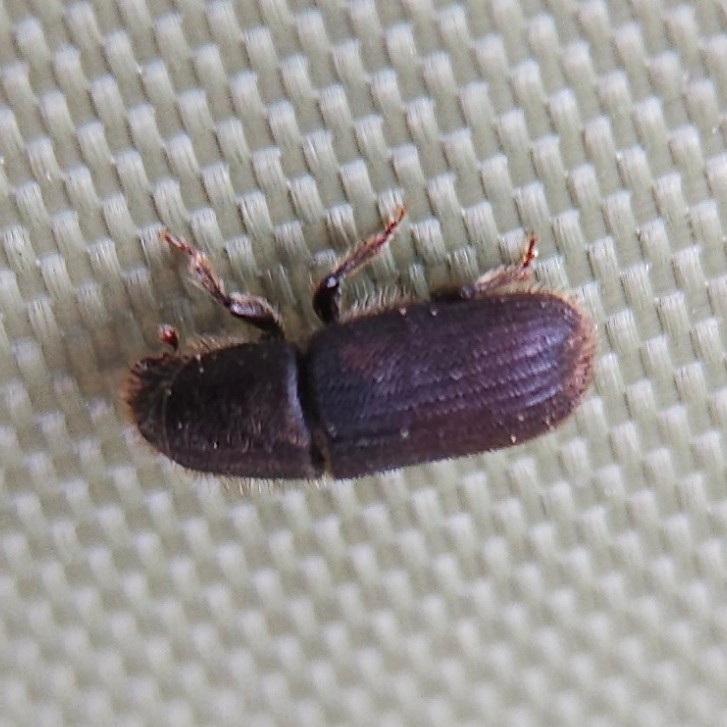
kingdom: Animalia
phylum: Arthropoda
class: Insecta
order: Coleoptera
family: Curculionidae
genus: Hylurgus
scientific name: Hylurgus ligniperda
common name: Goldenhaired bark beetle
